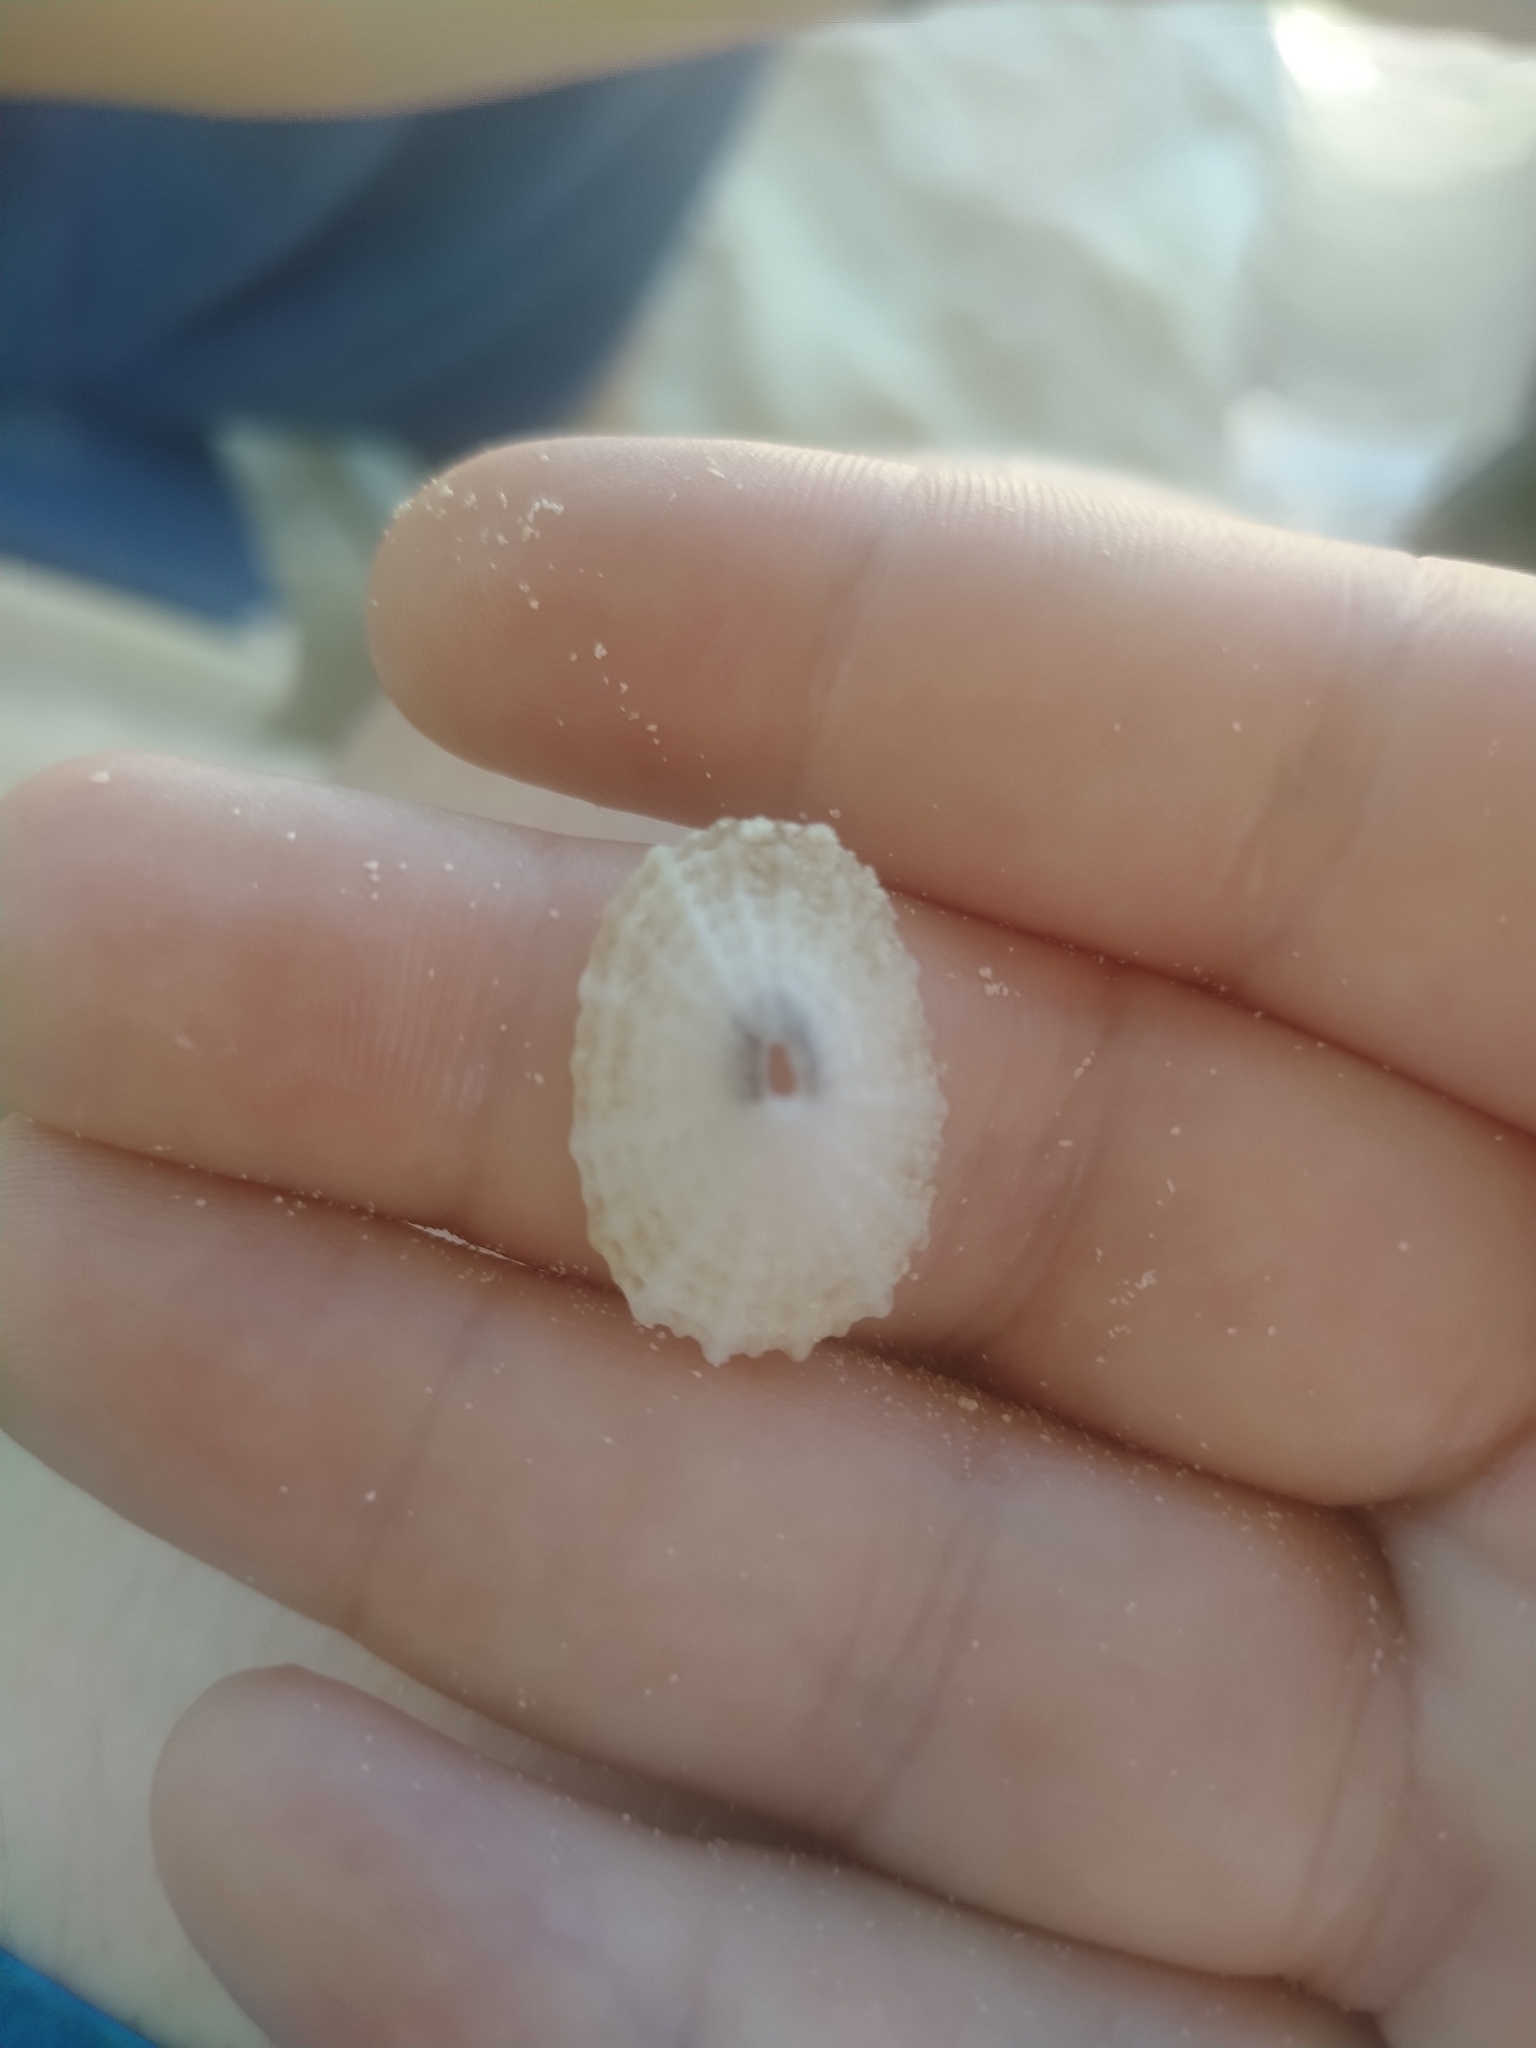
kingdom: Animalia
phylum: Mollusca
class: Gastropoda
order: Lepetellida
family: Fissurellidae
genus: Diodora
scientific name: Diodora listeri
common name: Lister's key-hole limpet
